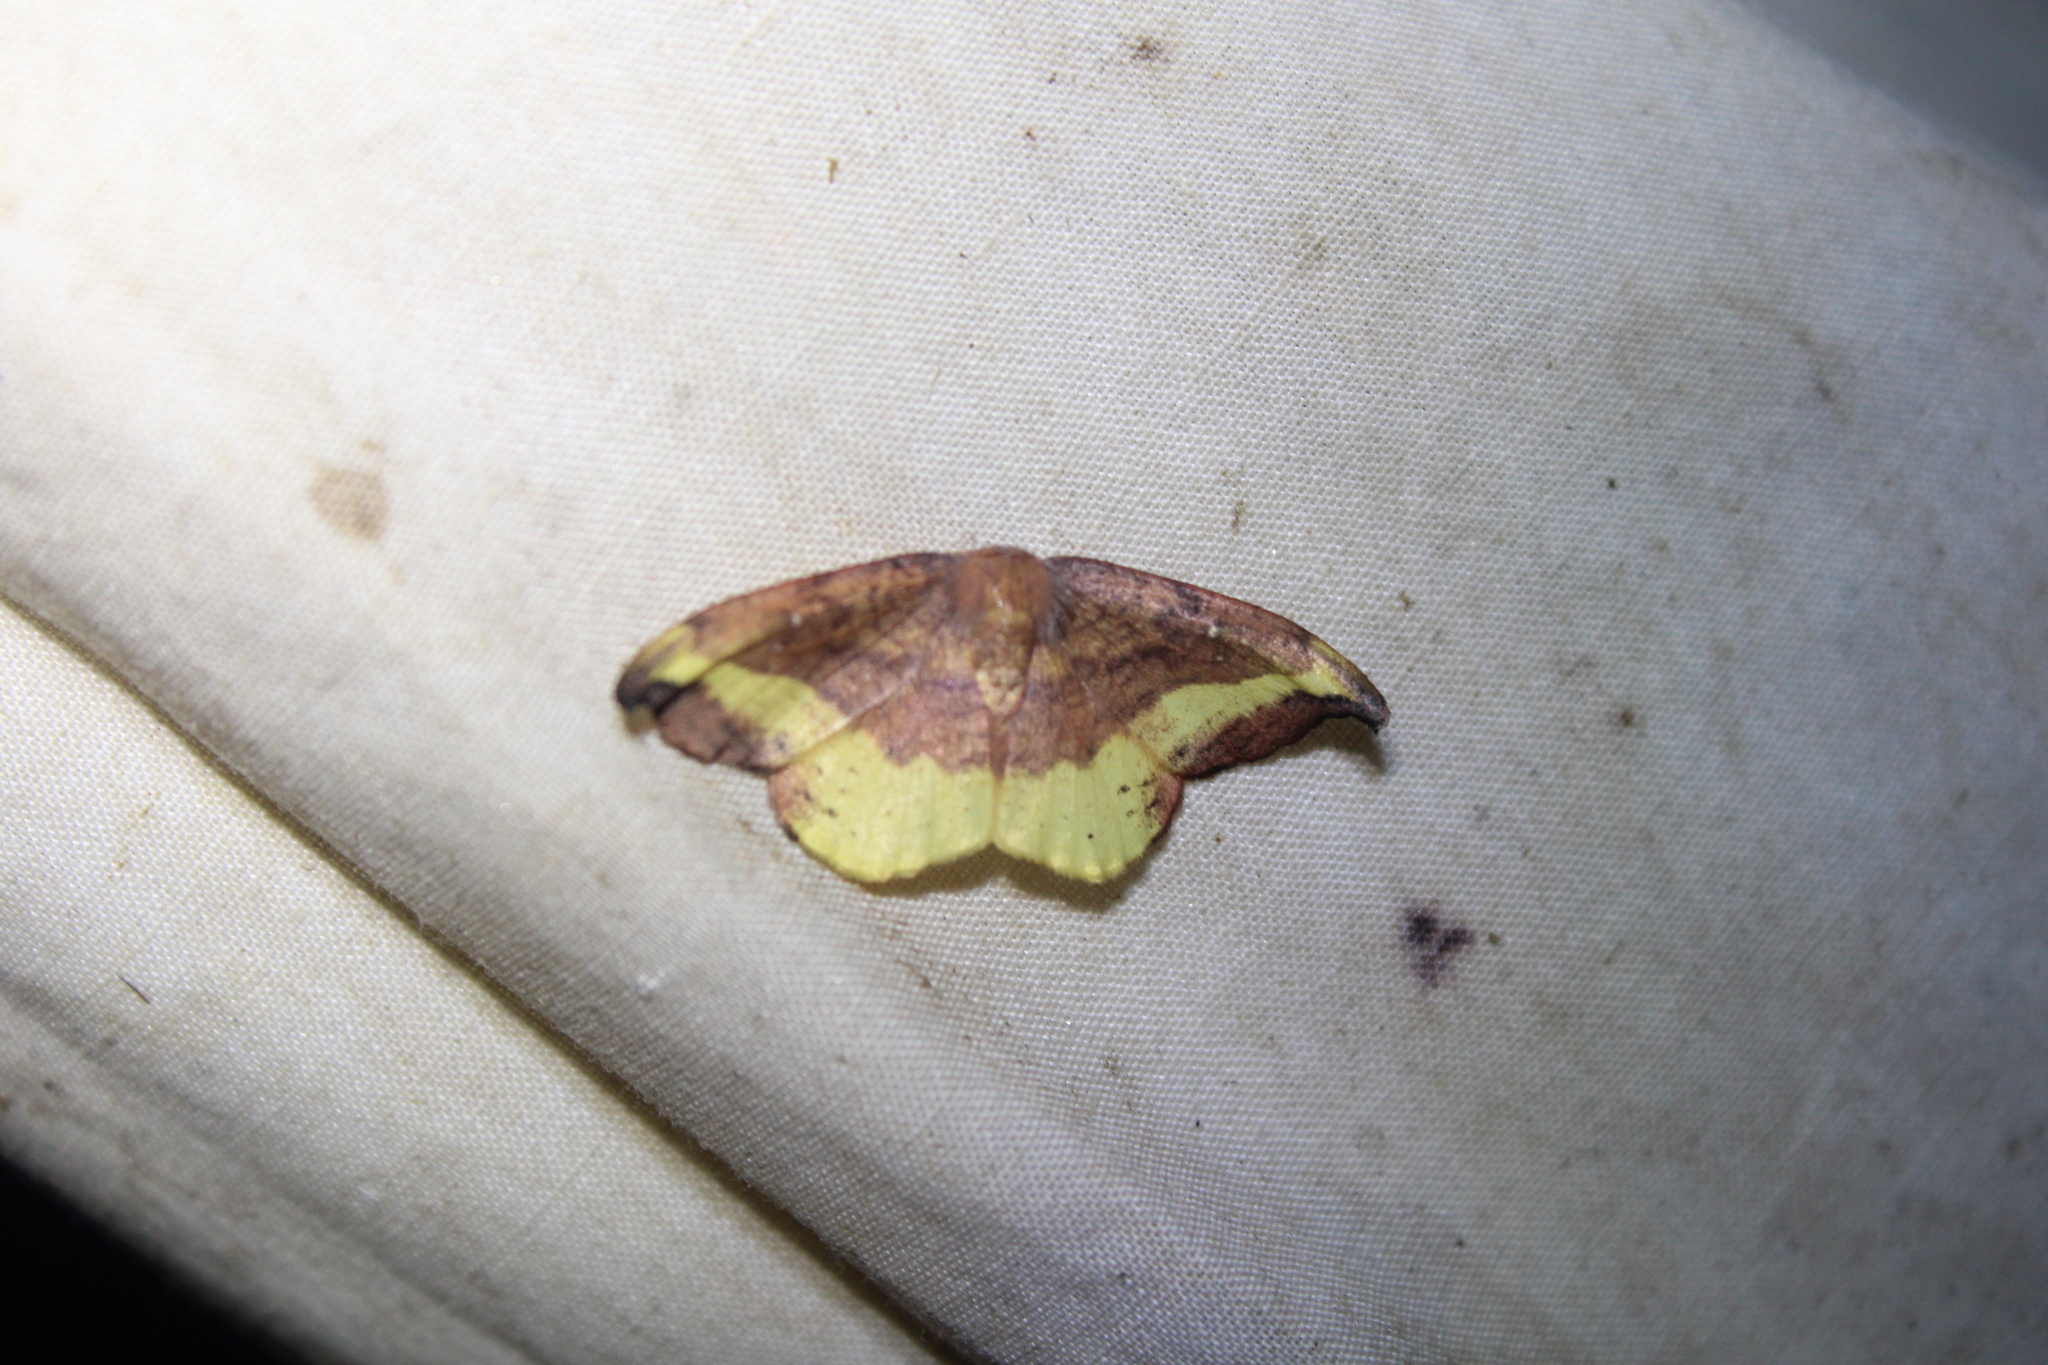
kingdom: Animalia
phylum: Arthropoda
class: Insecta
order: Lepidoptera
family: Drepanidae
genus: Oreta
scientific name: Oreta rosea
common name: Rose hooktip
